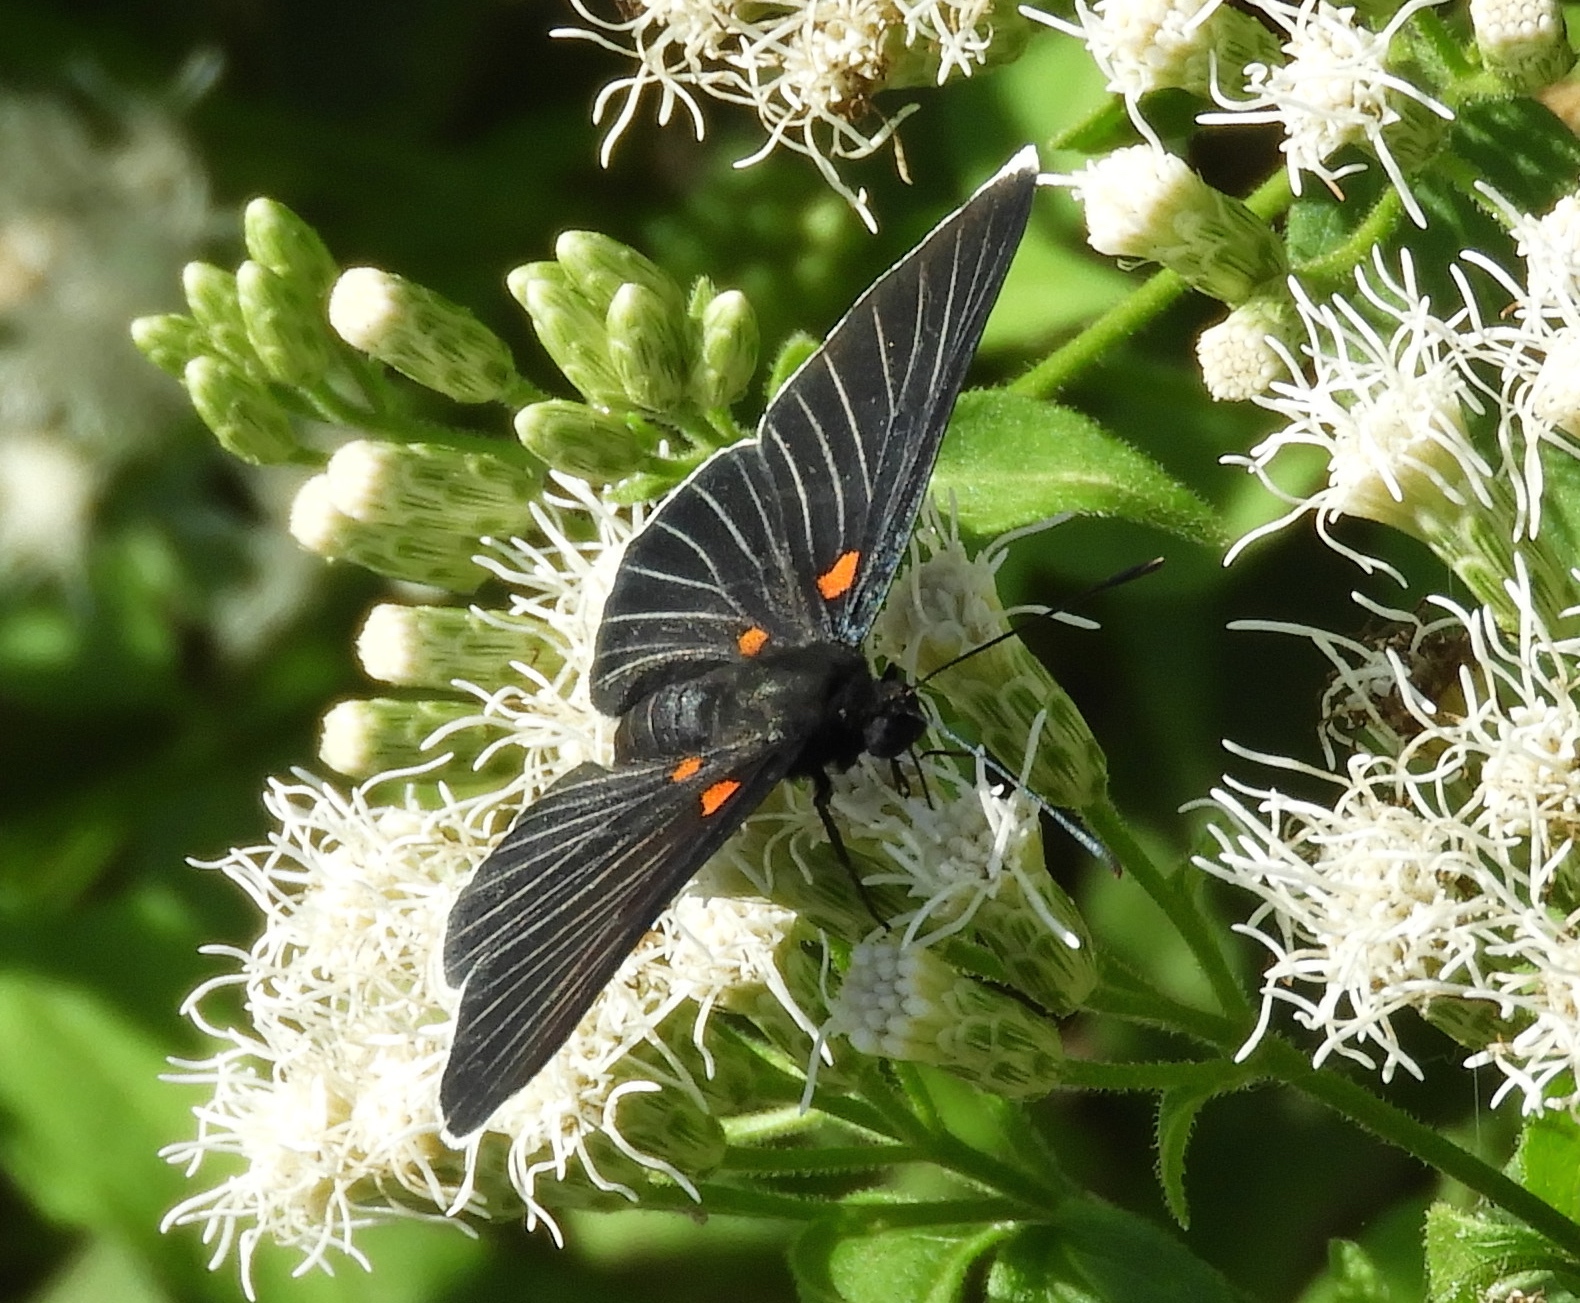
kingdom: Animalia
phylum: Arthropoda
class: Insecta
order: Lepidoptera
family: Lycaenidae
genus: Melanis
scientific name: Melanis
